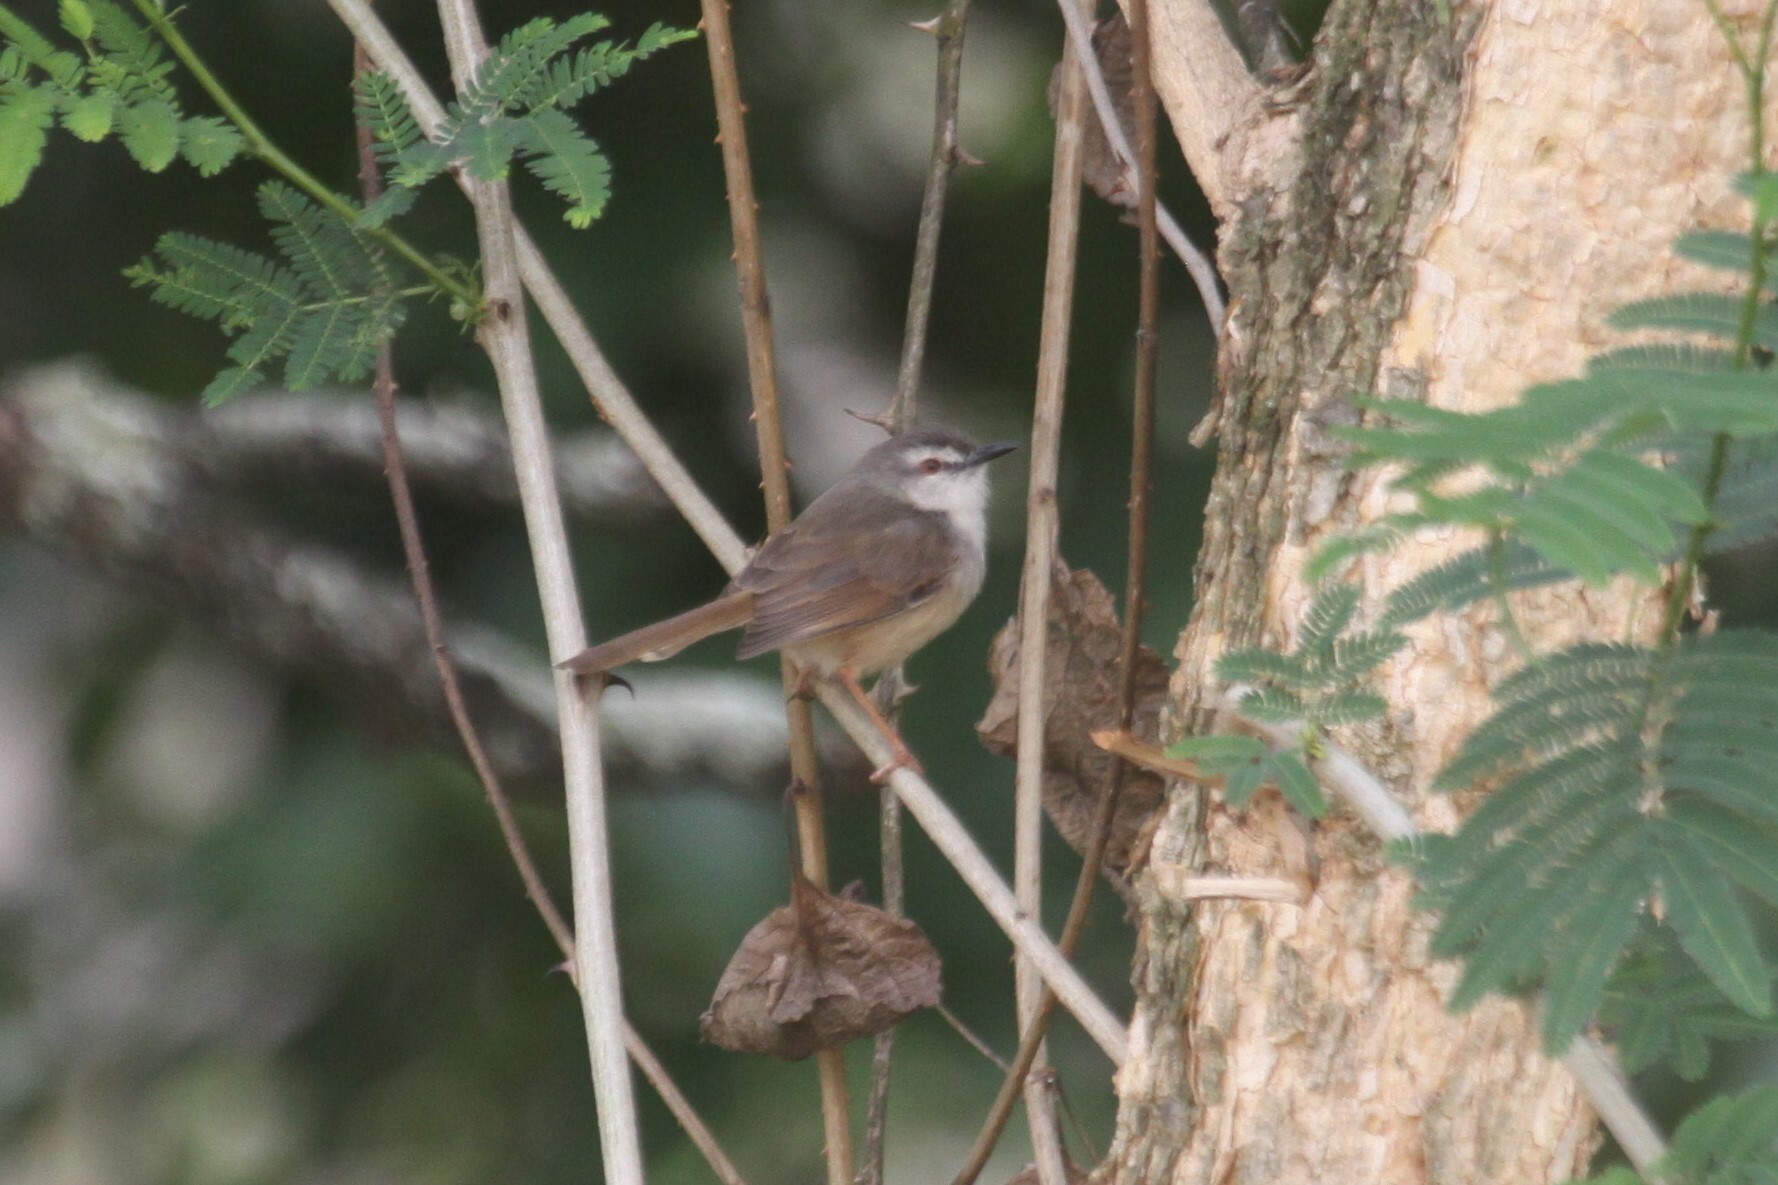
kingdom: Animalia
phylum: Chordata
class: Aves
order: Passeriformes
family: Cisticolidae
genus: Prinia
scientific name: Prinia subflava
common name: Tawny-flanked prinia
